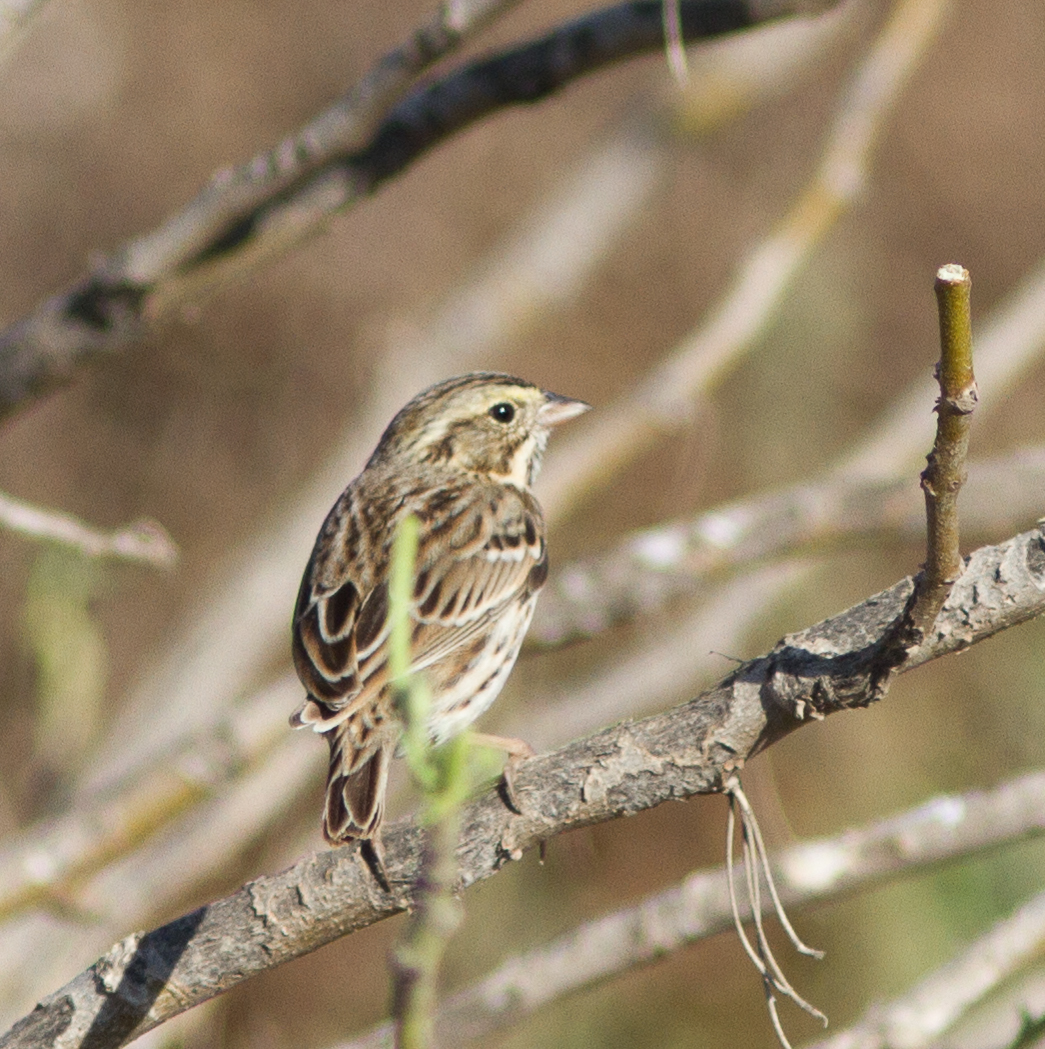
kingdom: Animalia
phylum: Chordata
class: Aves
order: Passeriformes
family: Passerellidae
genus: Passerculus
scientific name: Passerculus sandwichensis
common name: Savannah sparrow
